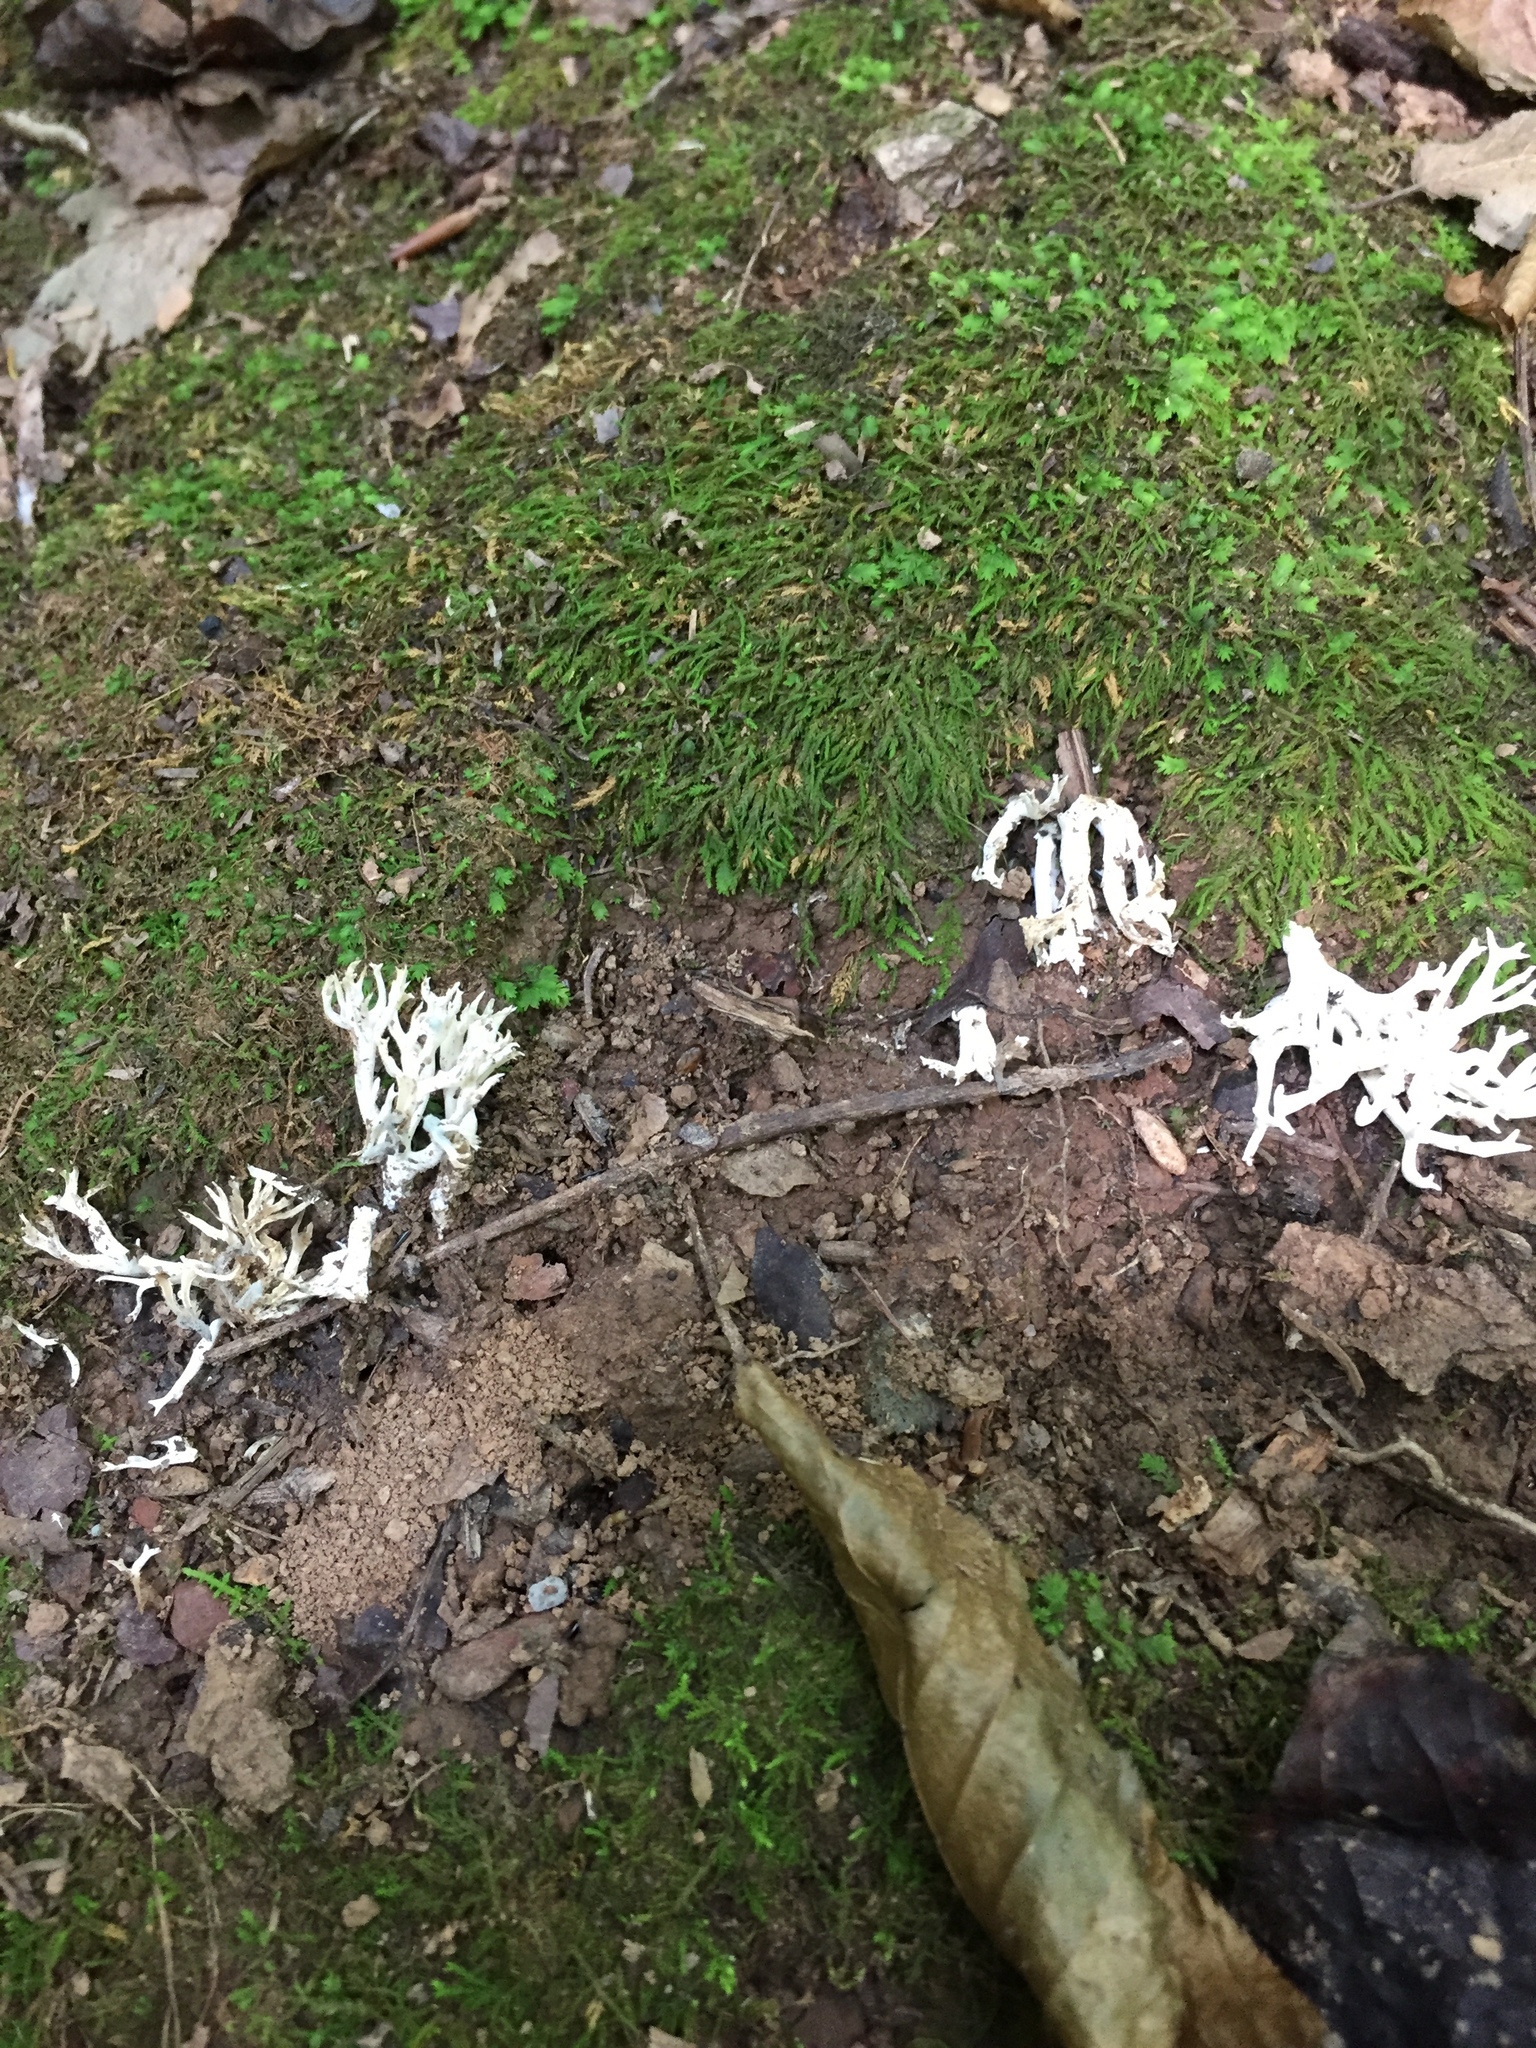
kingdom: Fungi
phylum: Basidiomycota
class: Agaricomycetes
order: Cantharellales
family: Hydnaceae
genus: Clavulina
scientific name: Clavulina coralloides
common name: Crested coral
